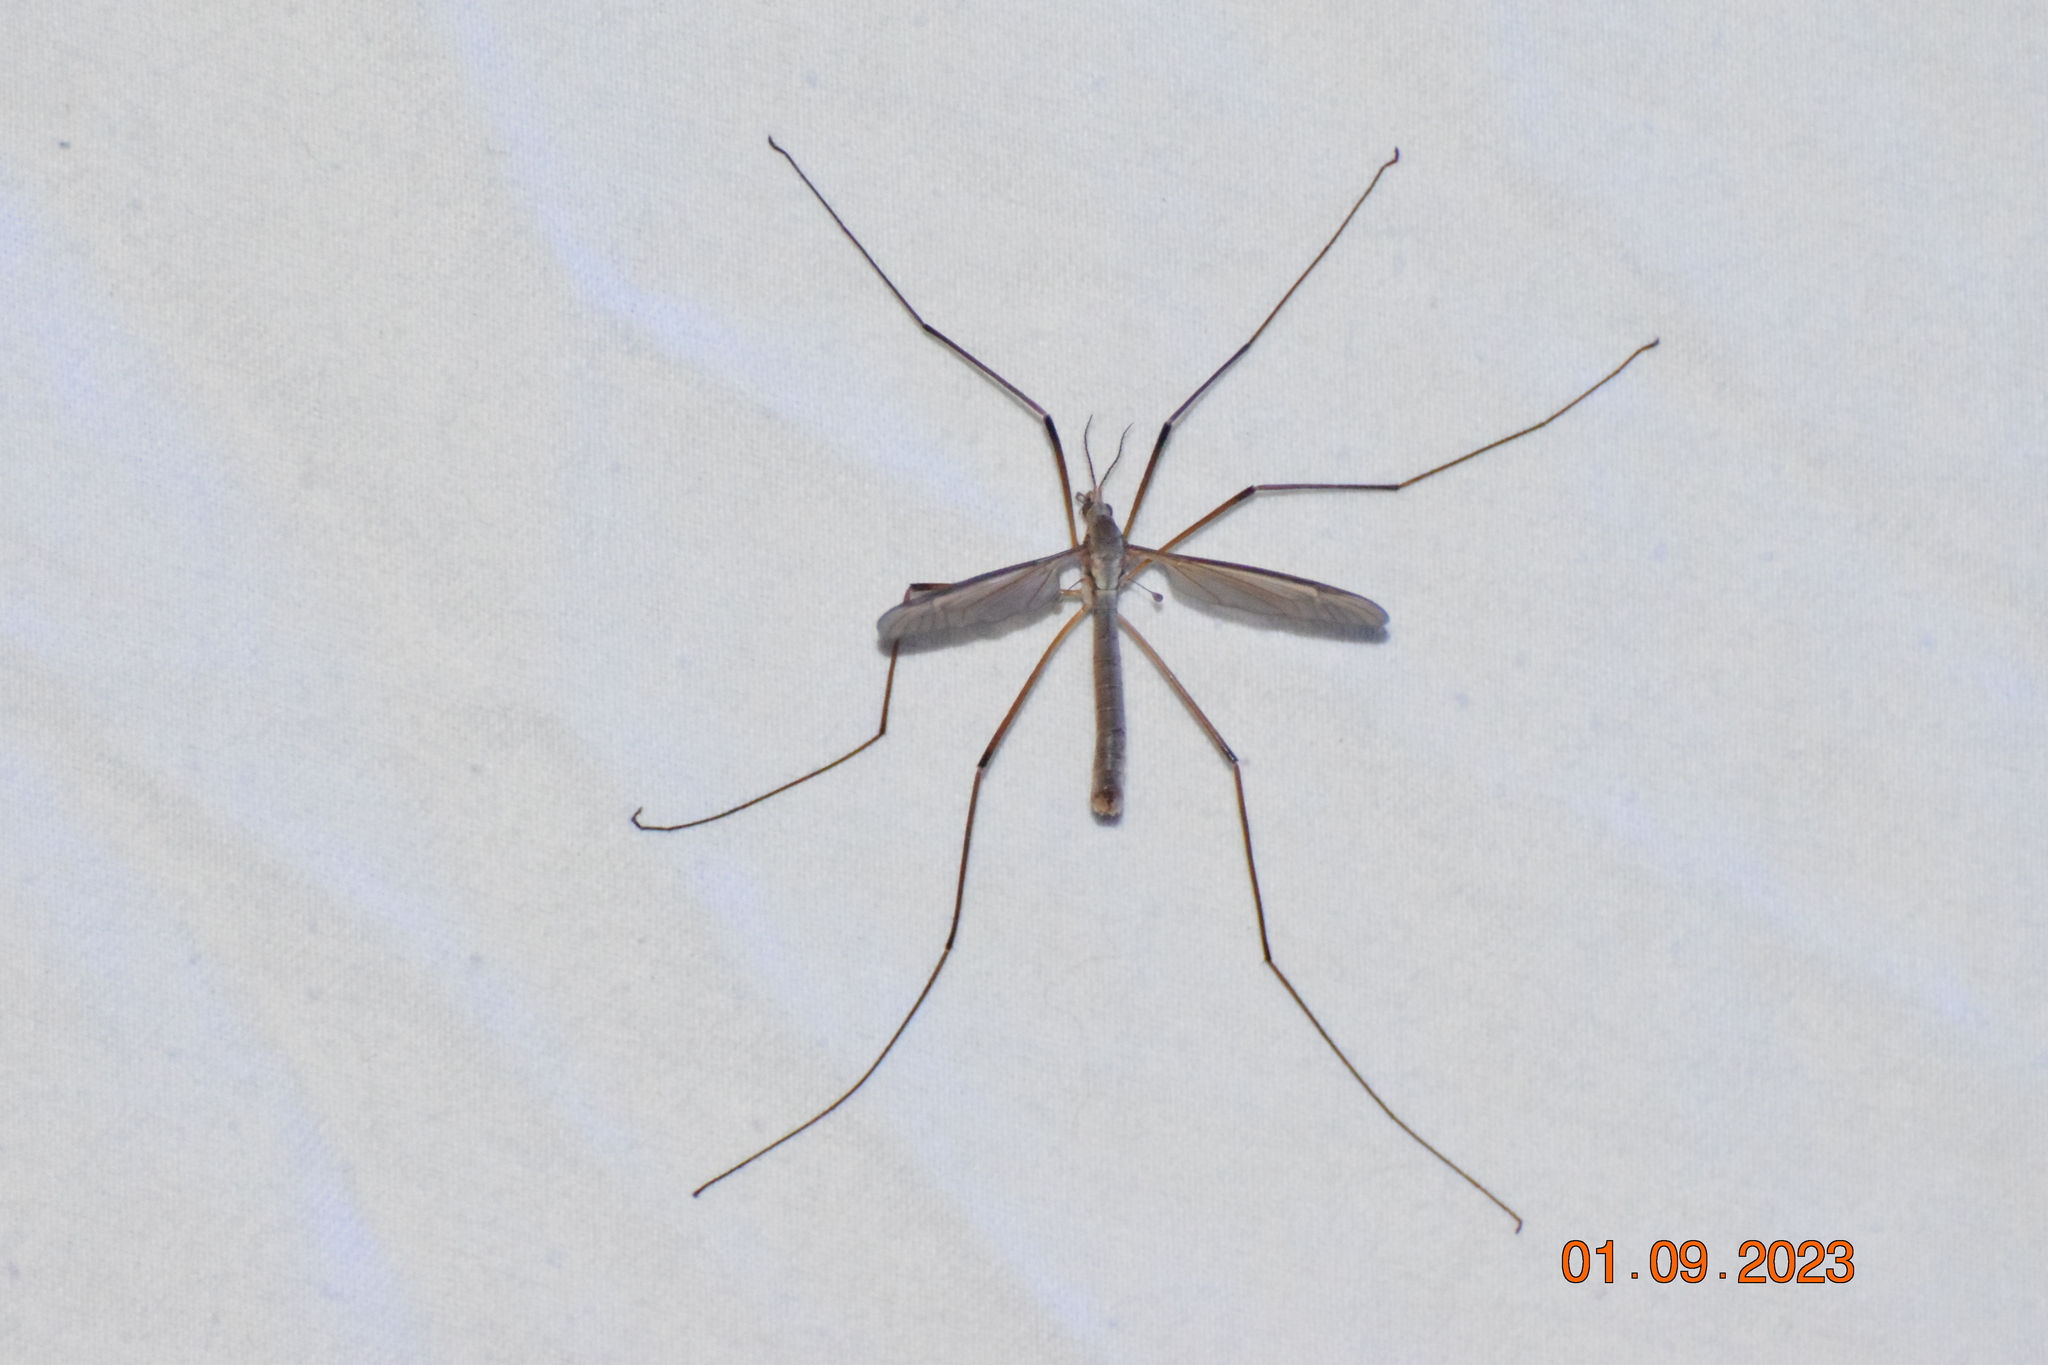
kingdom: Animalia
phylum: Arthropoda
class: Insecta
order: Diptera
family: Tipulidae
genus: Tipula
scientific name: Tipula paludosa
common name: European cranefly
